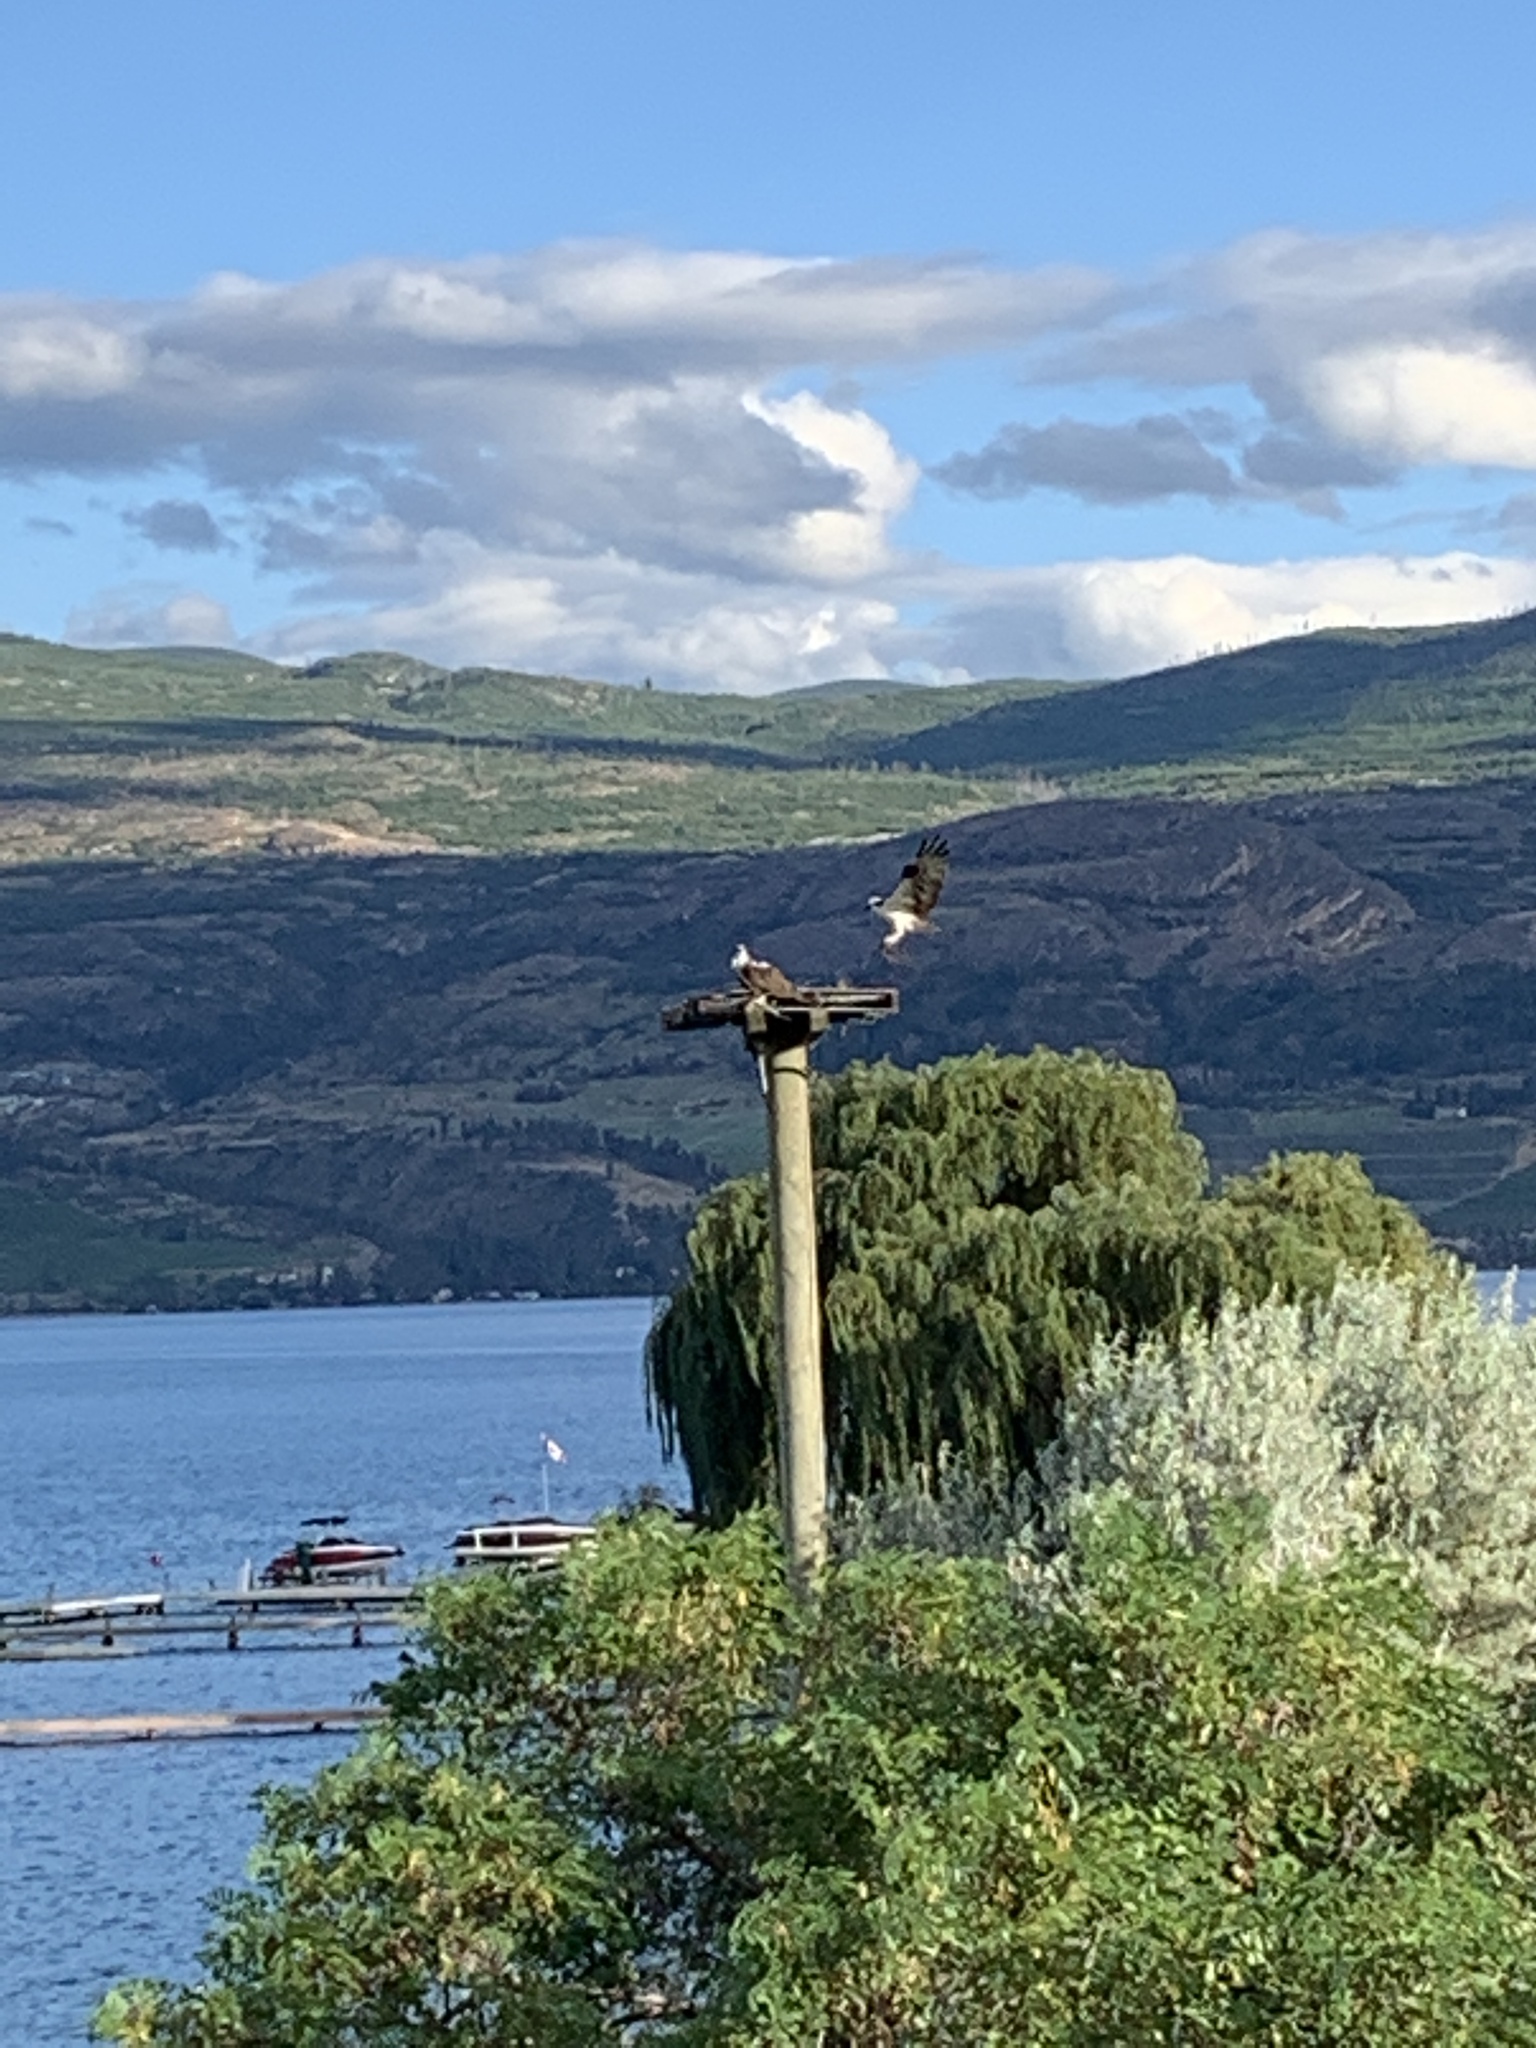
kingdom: Animalia
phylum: Chordata
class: Aves
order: Accipitriformes
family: Pandionidae
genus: Pandion
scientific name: Pandion haliaetus
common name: Osprey
